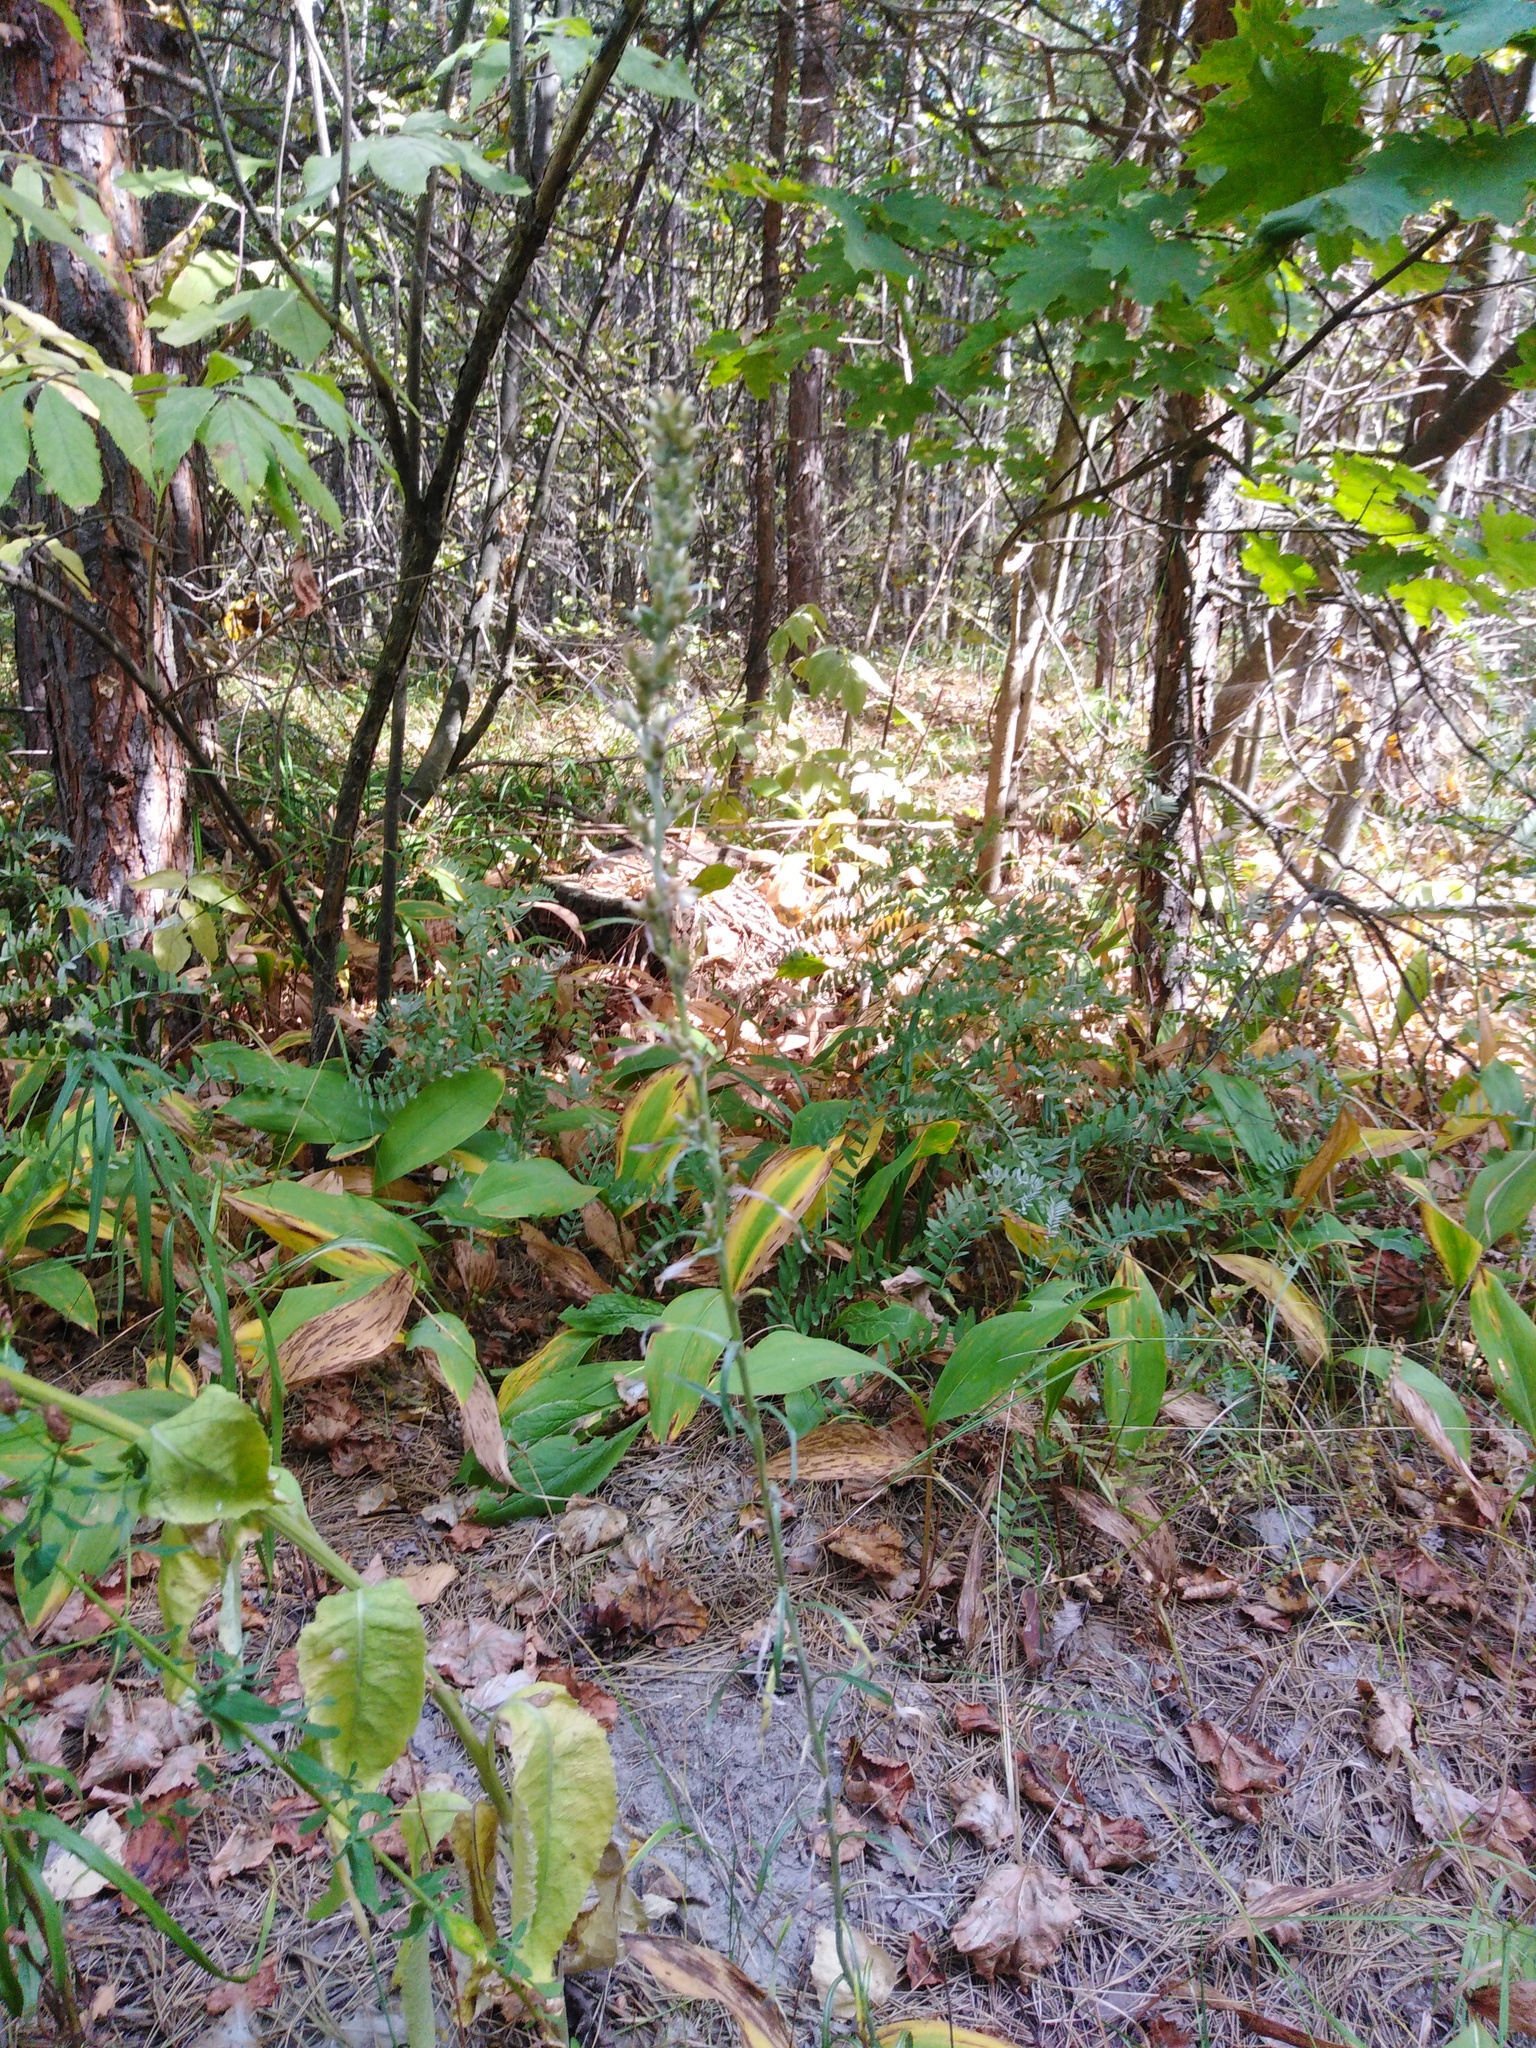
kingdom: Plantae
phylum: Tracheophyta
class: Magnoliopsida
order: Asterales
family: Asteraceae
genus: Omalotheca
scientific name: Omalotheca sylvatica
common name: Heath cudweed
